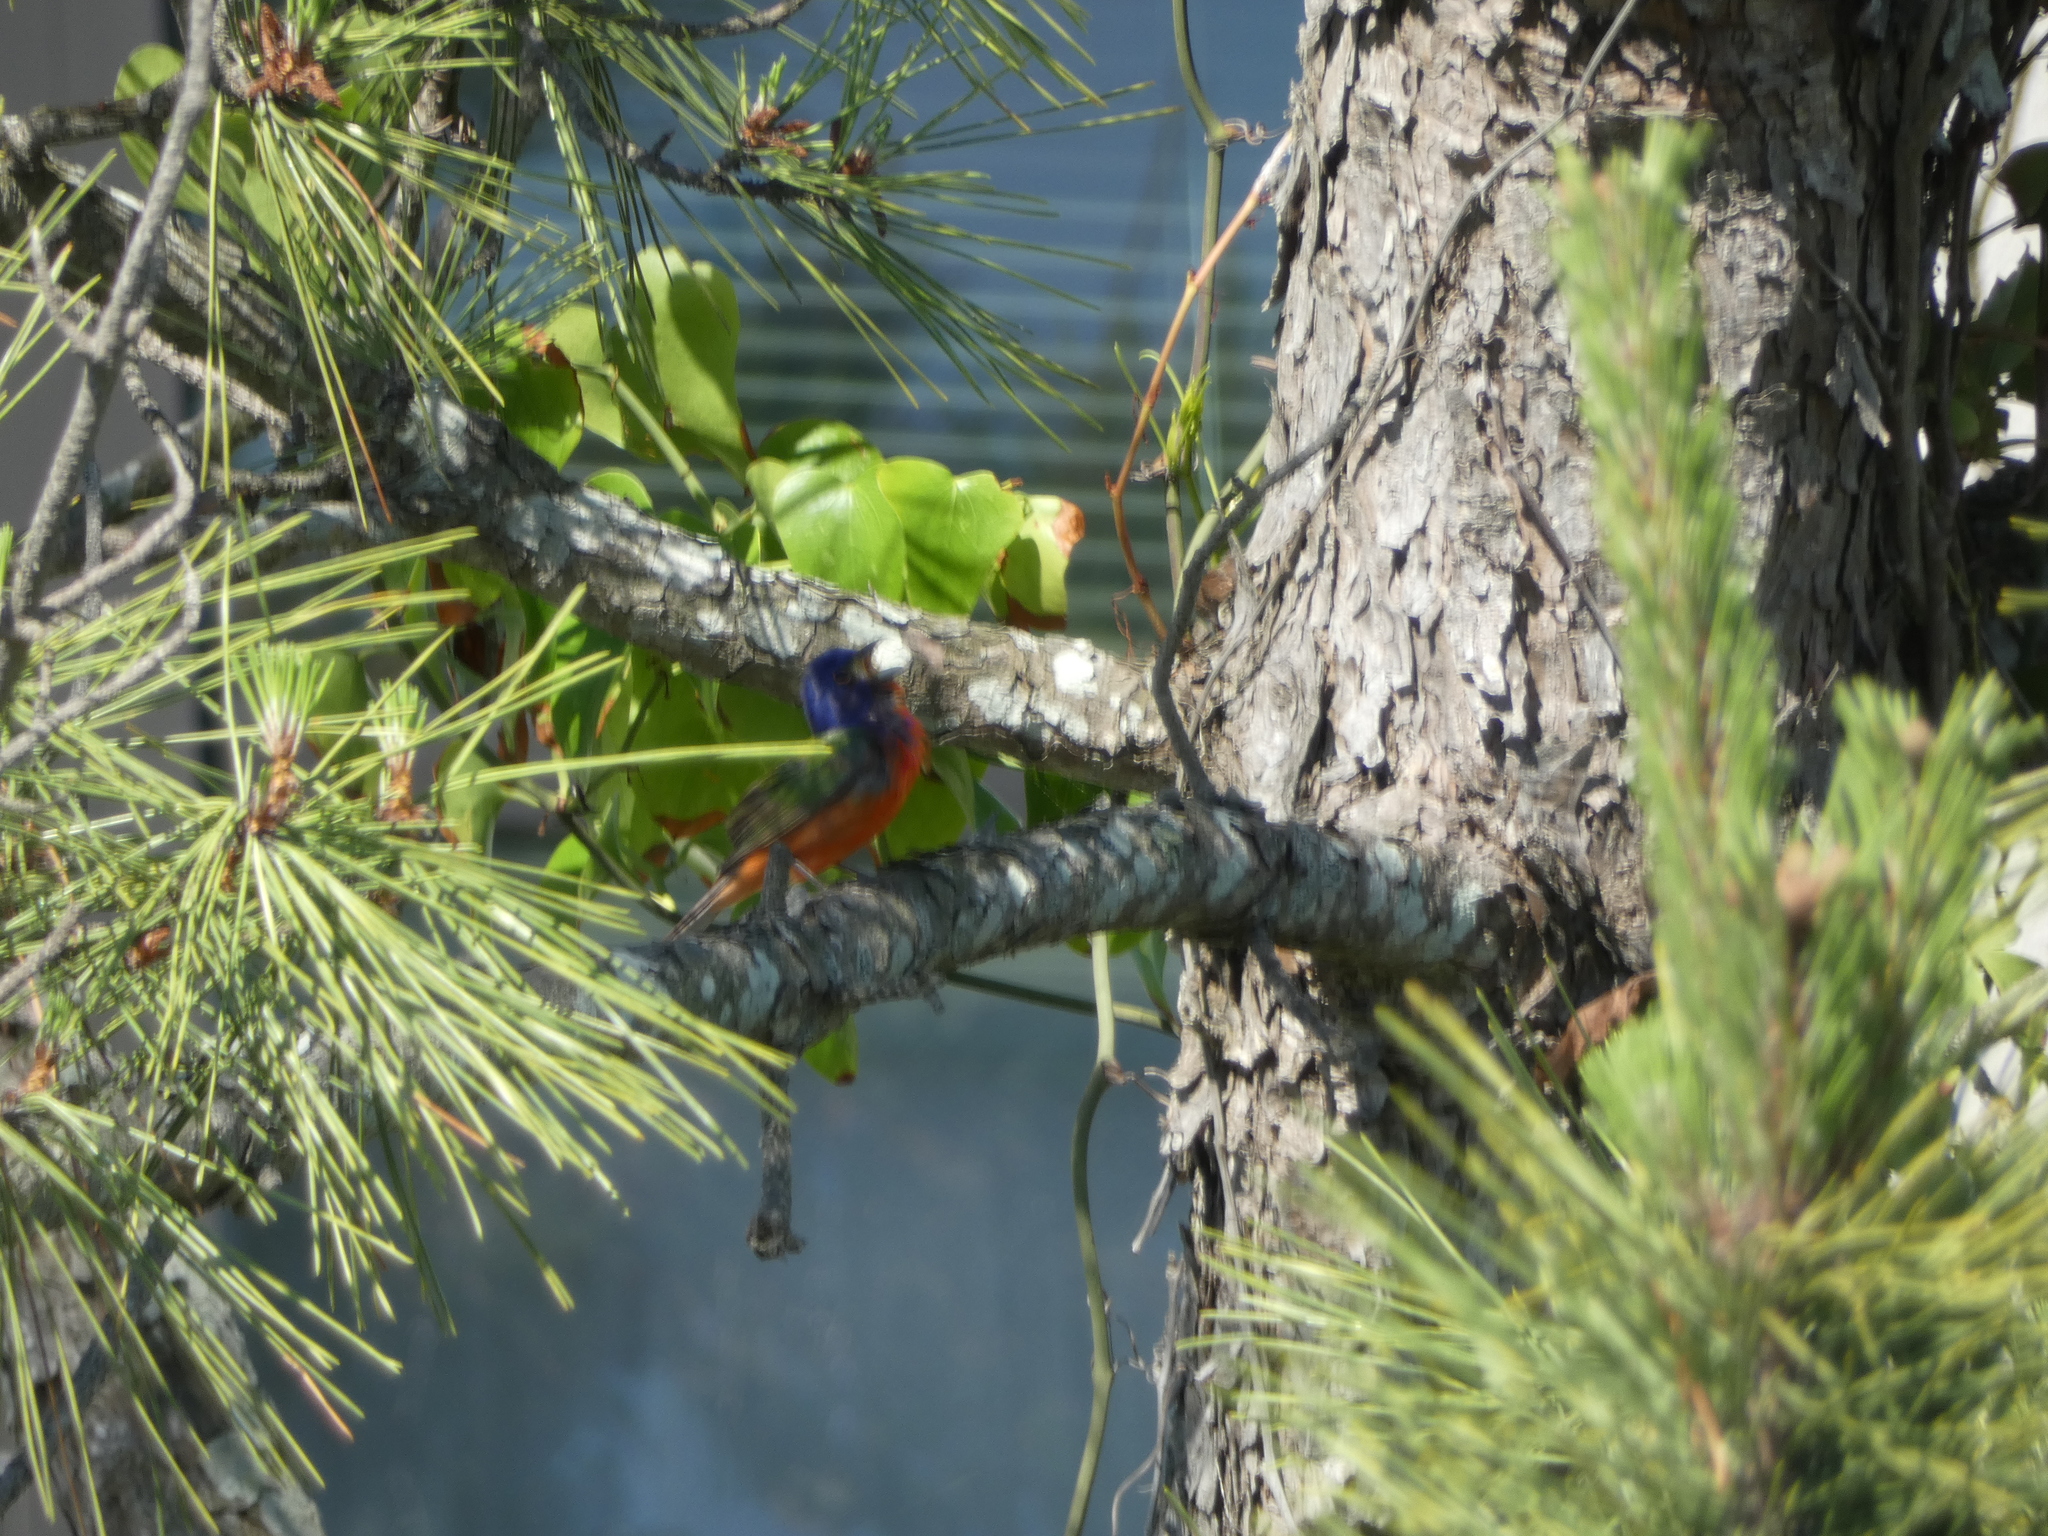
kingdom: Animalia
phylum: Chordata
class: Aves
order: Passeriformes
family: Cardinalidae
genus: Passerina
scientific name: Passerina ciris
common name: Painted bunting
